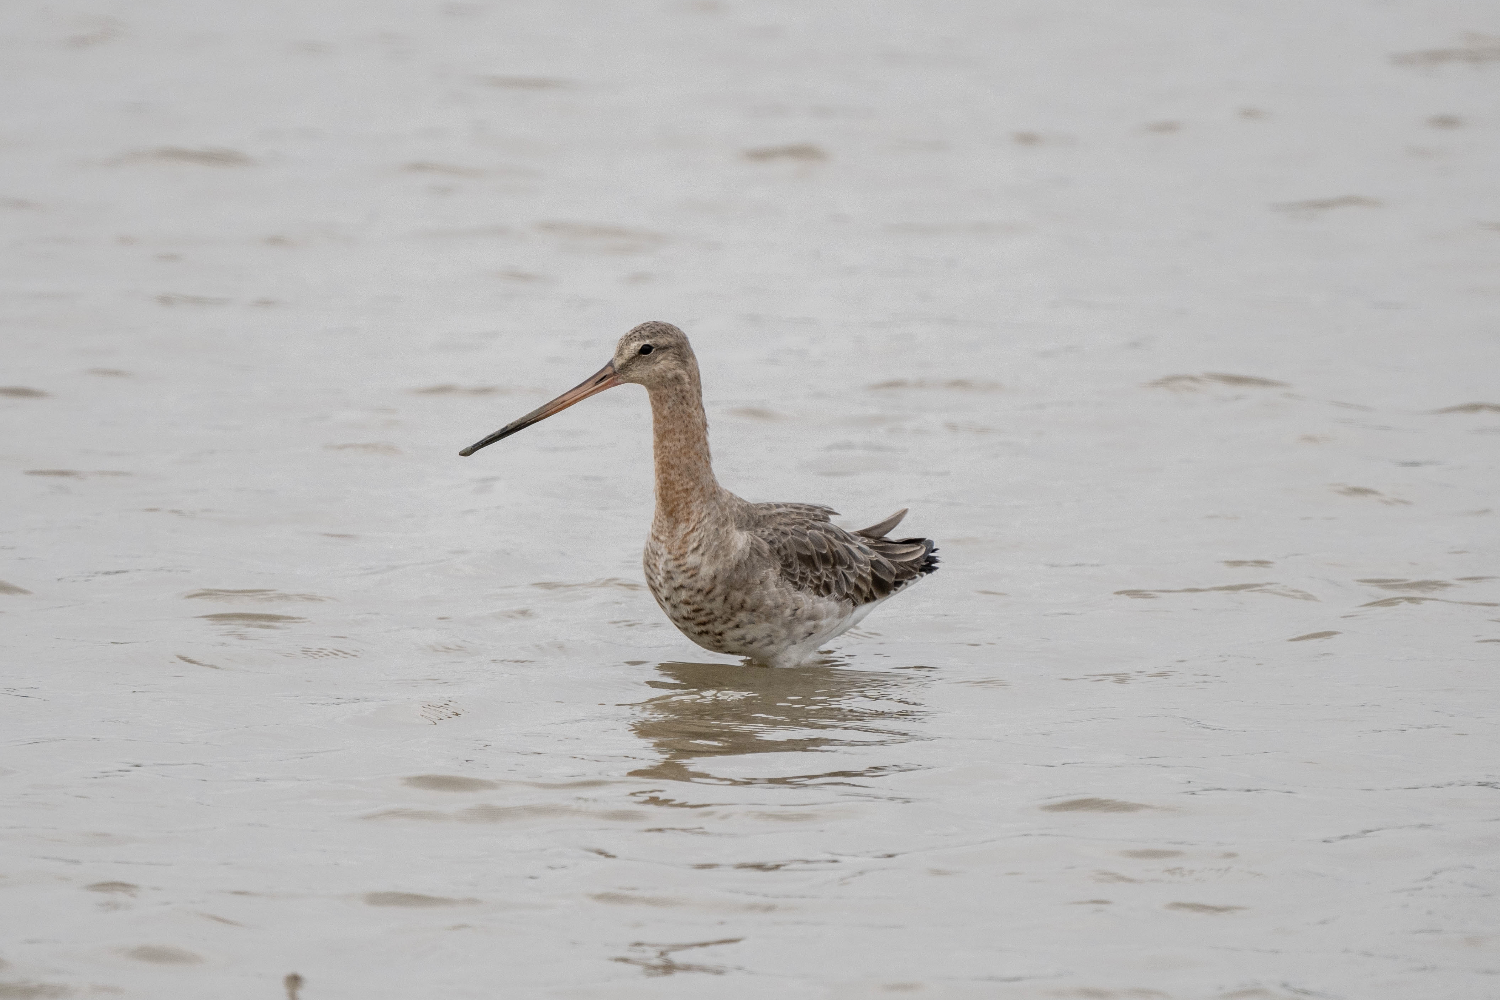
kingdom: Animalia
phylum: Chordata
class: Aves
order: Charadriiformes
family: Scolopacidae
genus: Limosa
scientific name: Limosa limosa
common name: Black-tailed godwit
